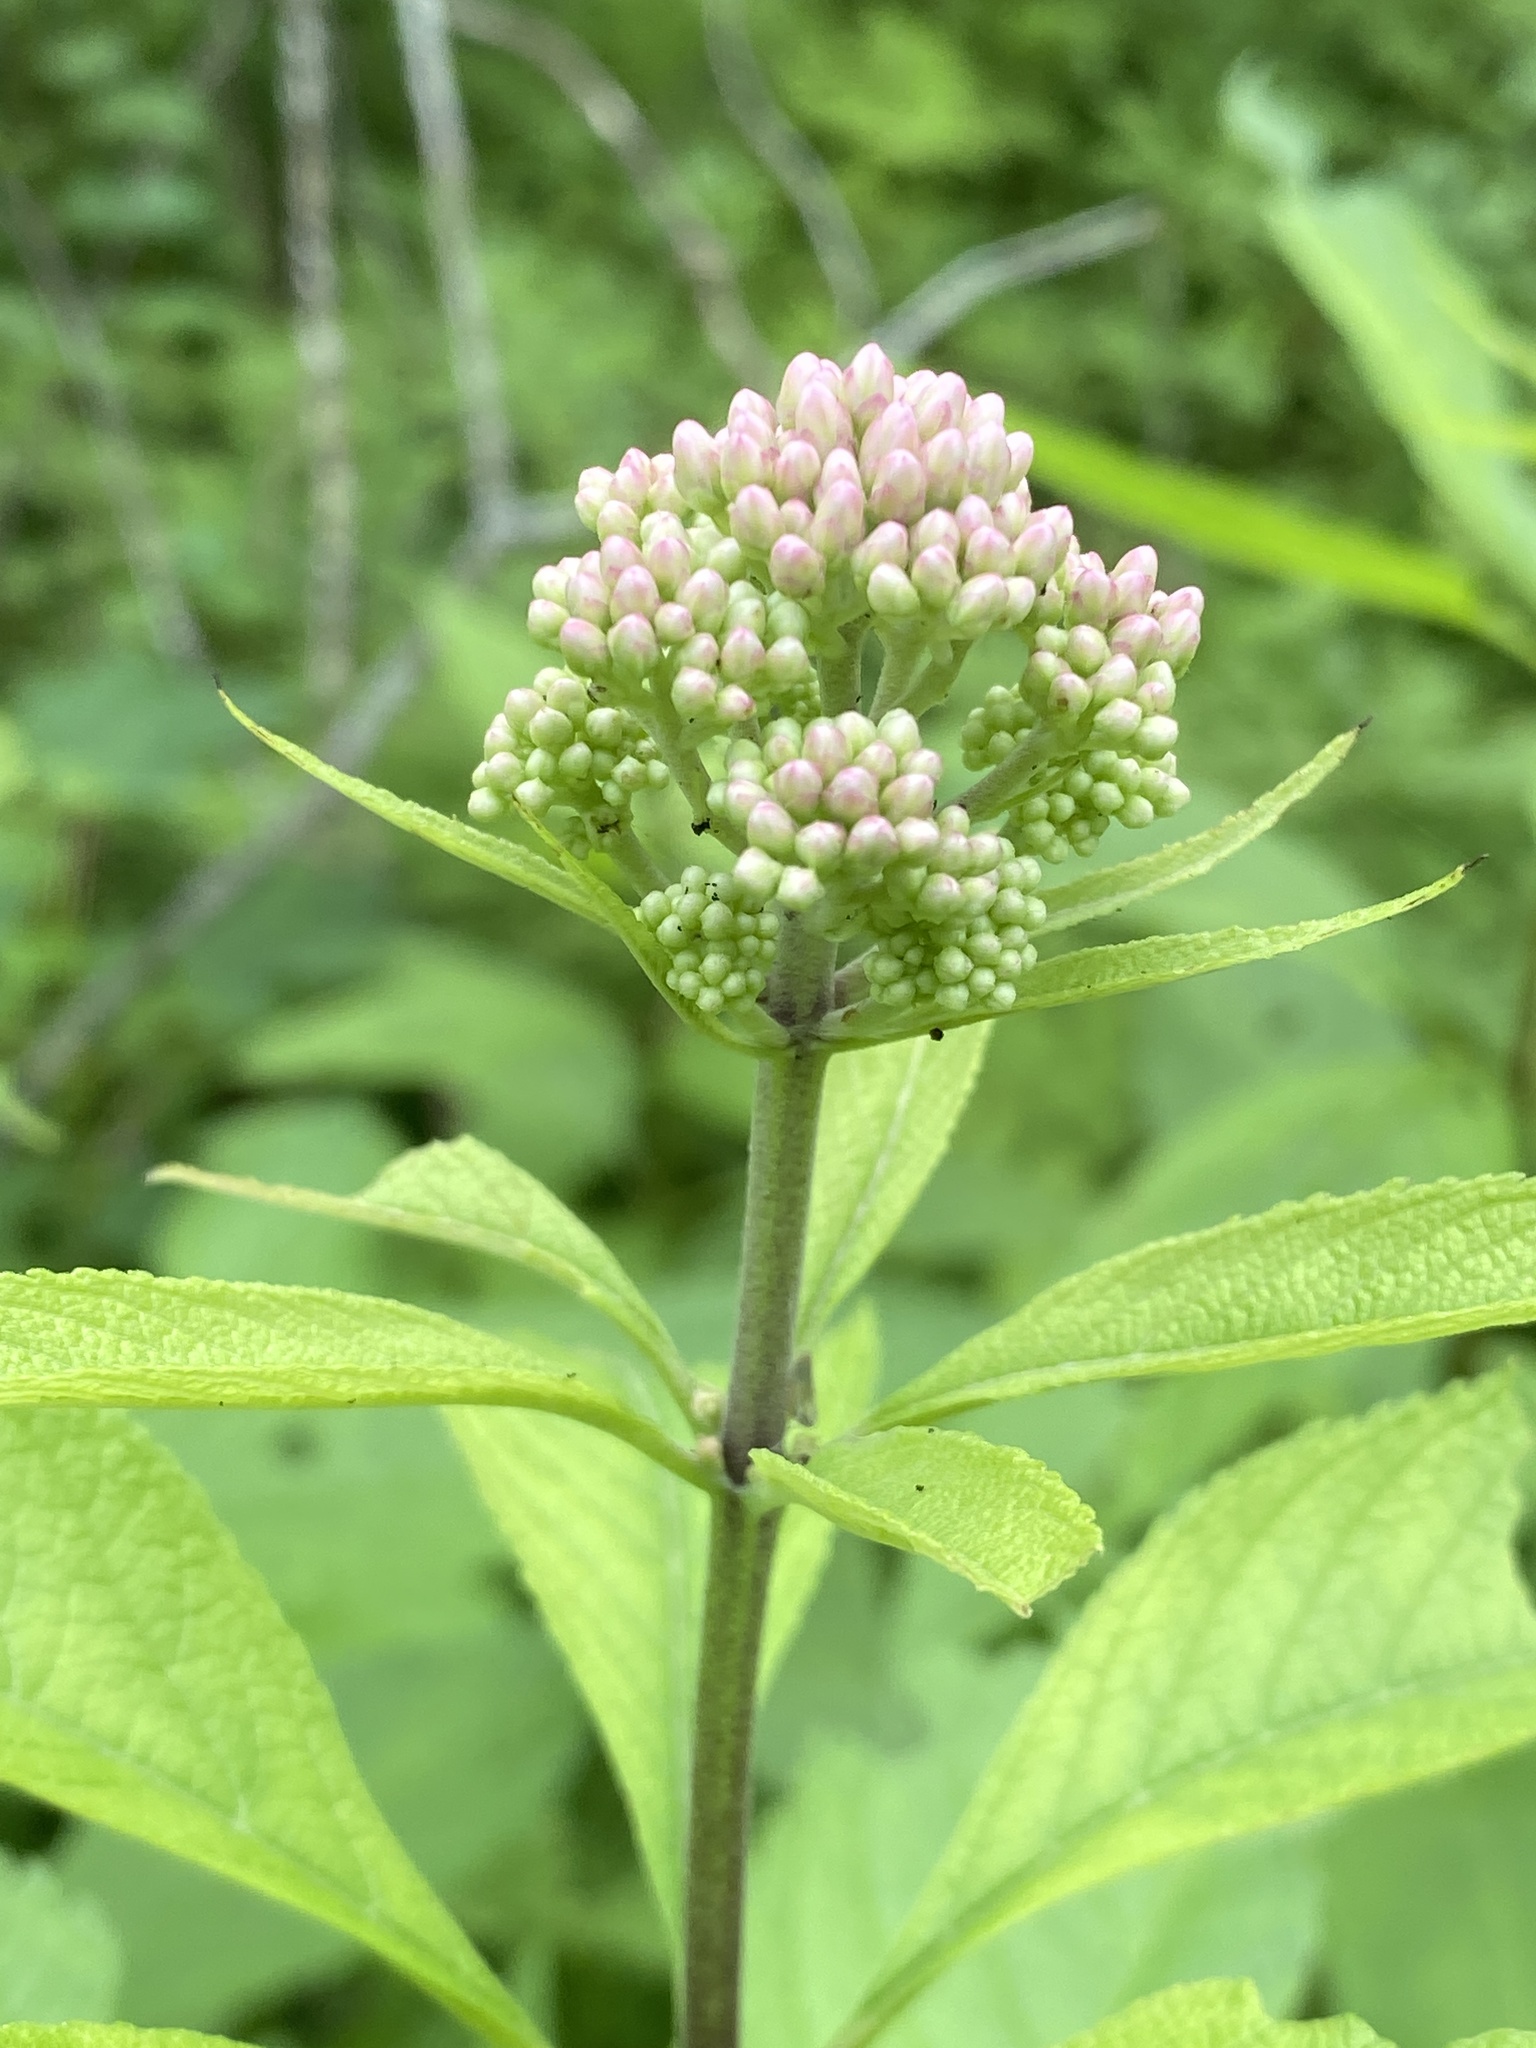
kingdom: Plantae
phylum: Tracheophyta
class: Magnoliopsida
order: Asterales
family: Asteraceae
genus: Eutrochium
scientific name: Eutrochium maculatum
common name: Spotted joe pye weed
